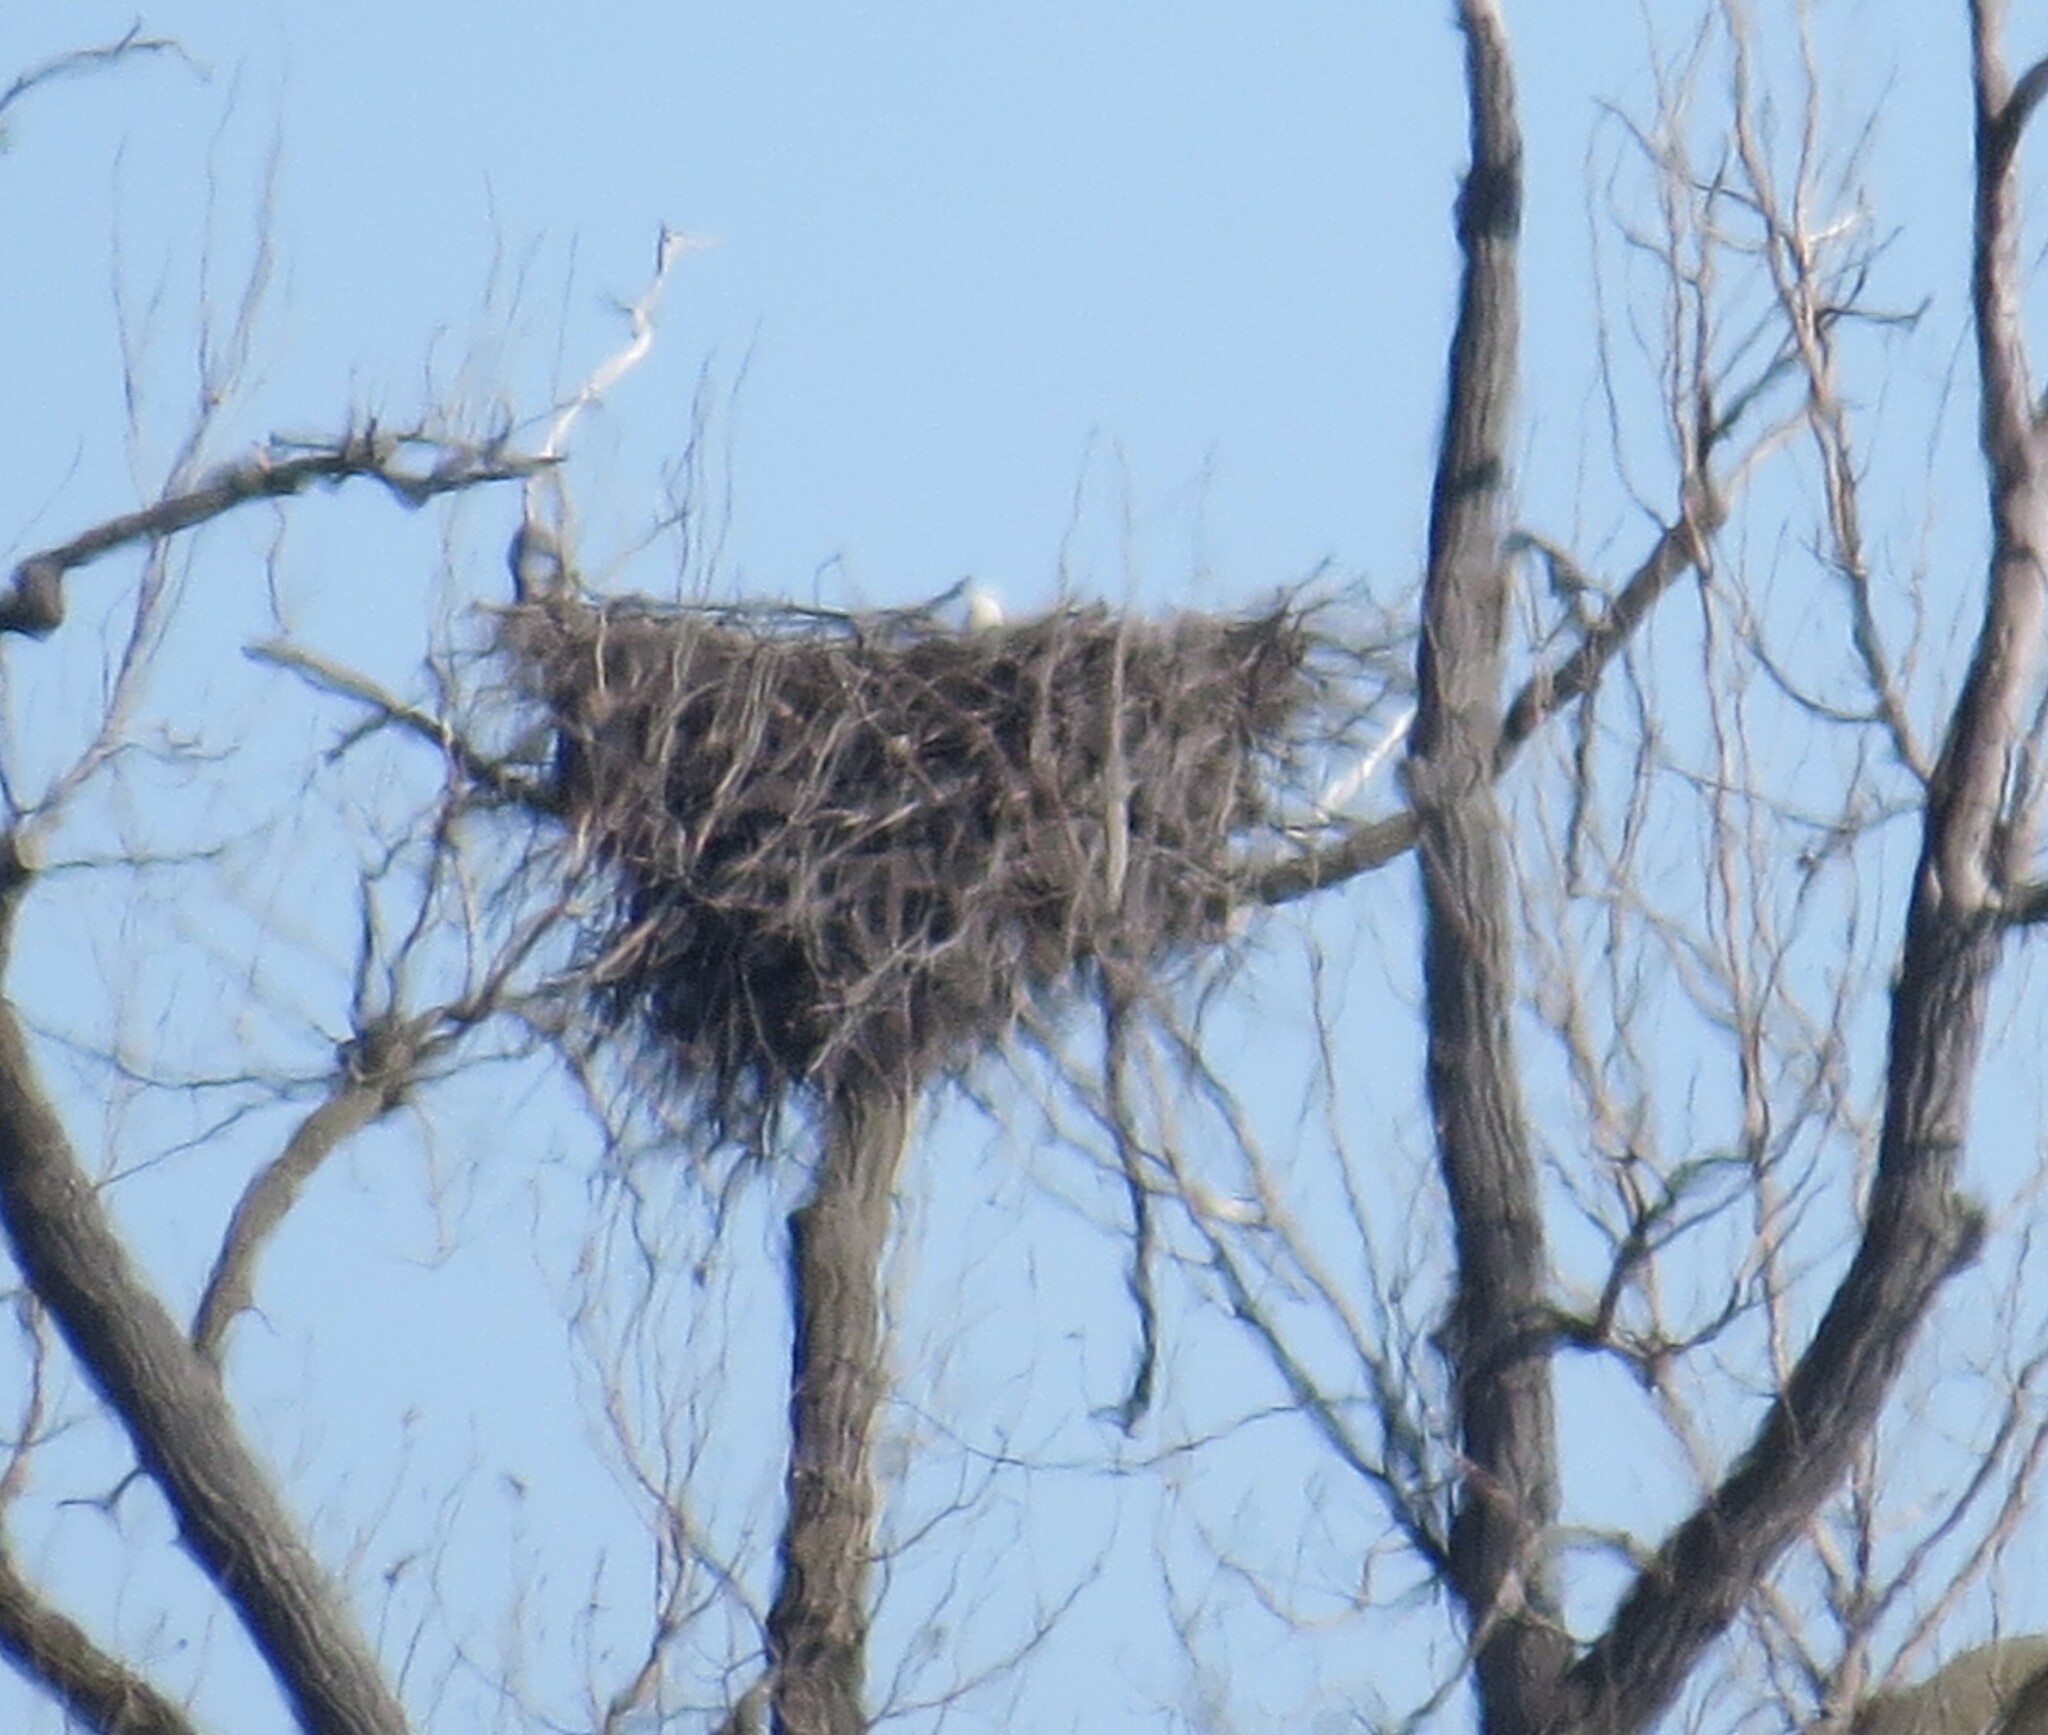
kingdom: Animalia
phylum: Chordata
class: Aves
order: Accipitriformes
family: Accipitridae
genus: Haliaeetus
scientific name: Haliaeetus leucocephalus
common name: Bald eagle
